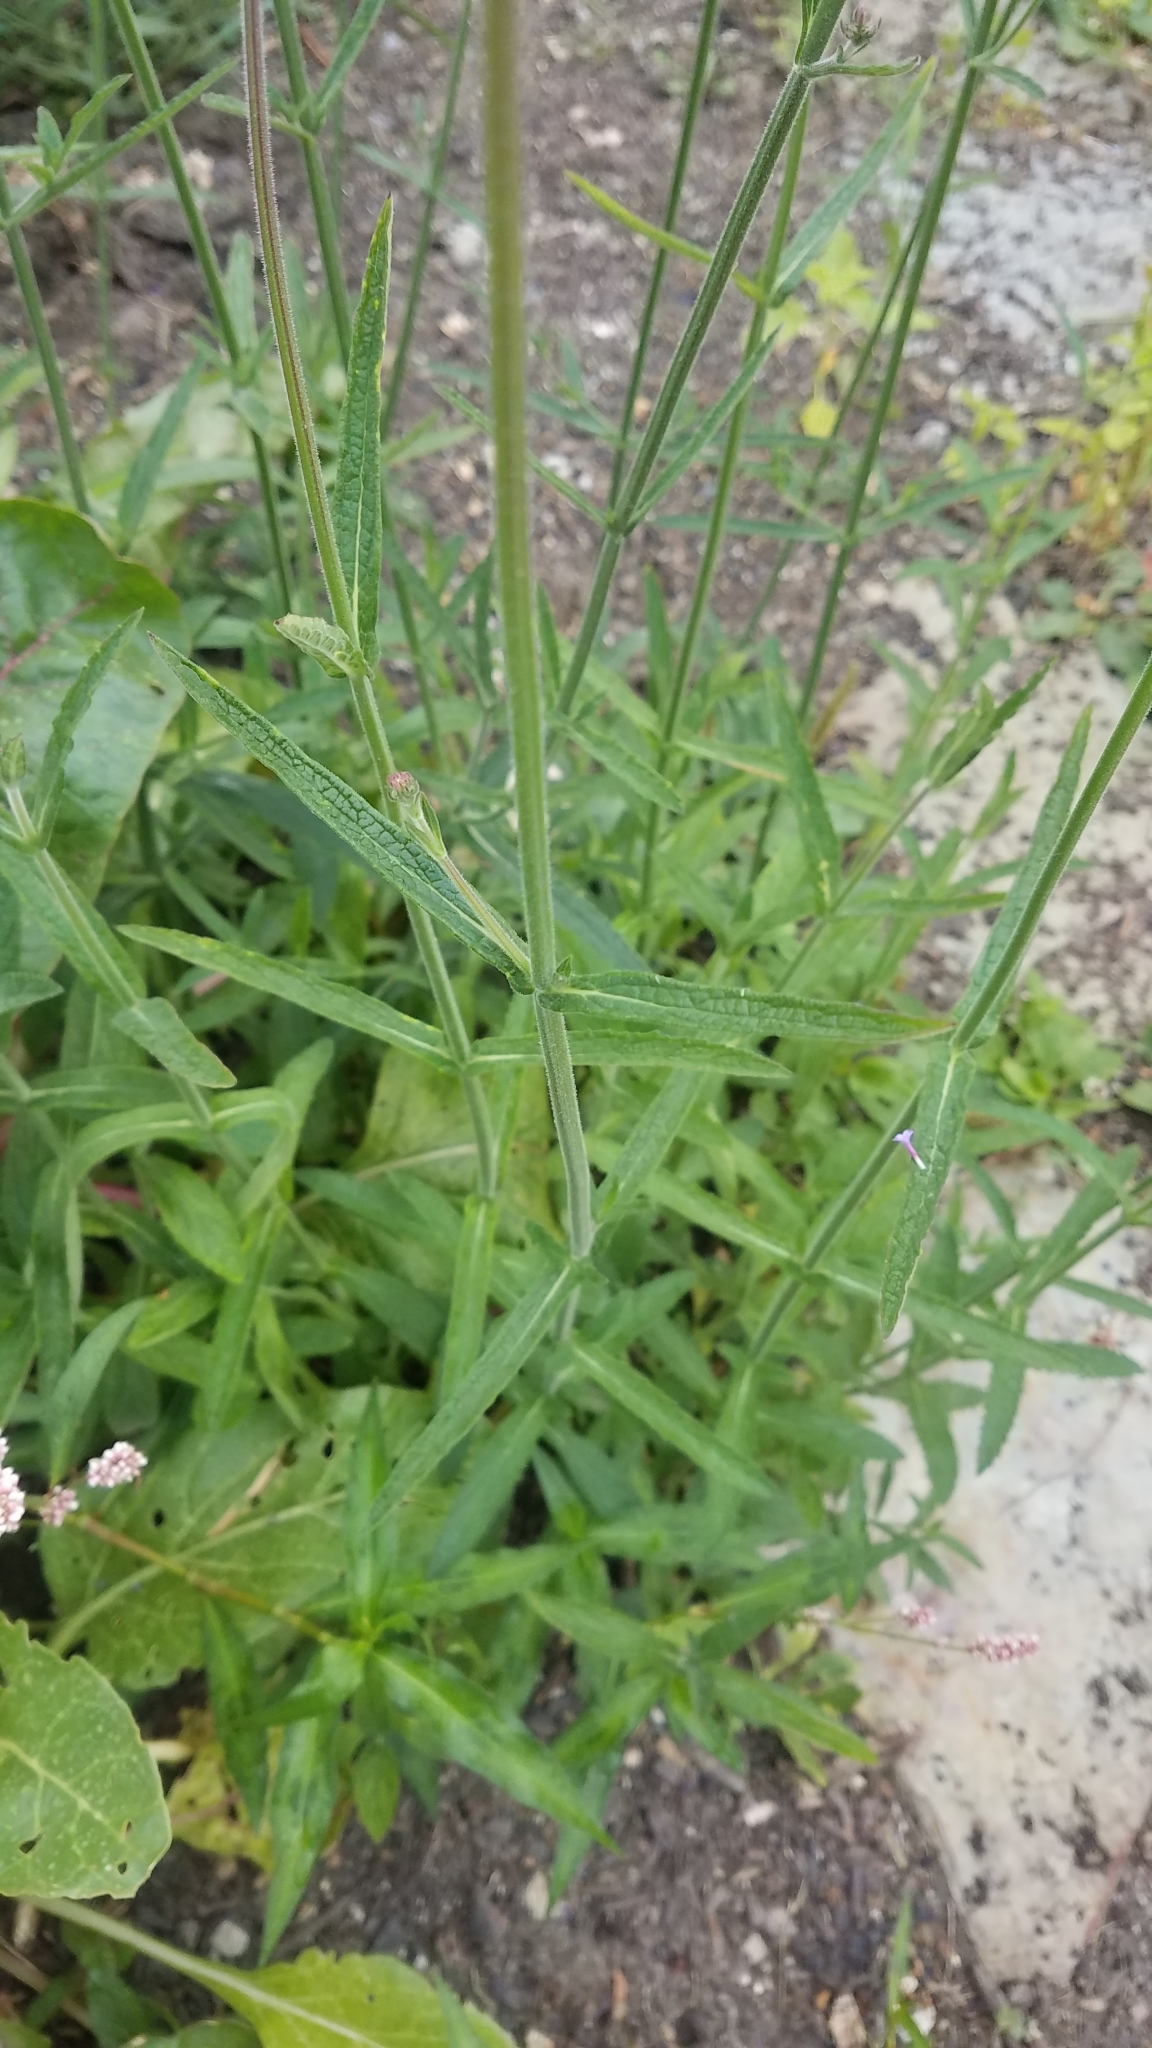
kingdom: Plantae
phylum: Tracheophyta
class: Magnoliopsida
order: Lamiales
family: Verbenaceae
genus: Verbena
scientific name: Verbena bonariensis
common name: Purpletop vervain
